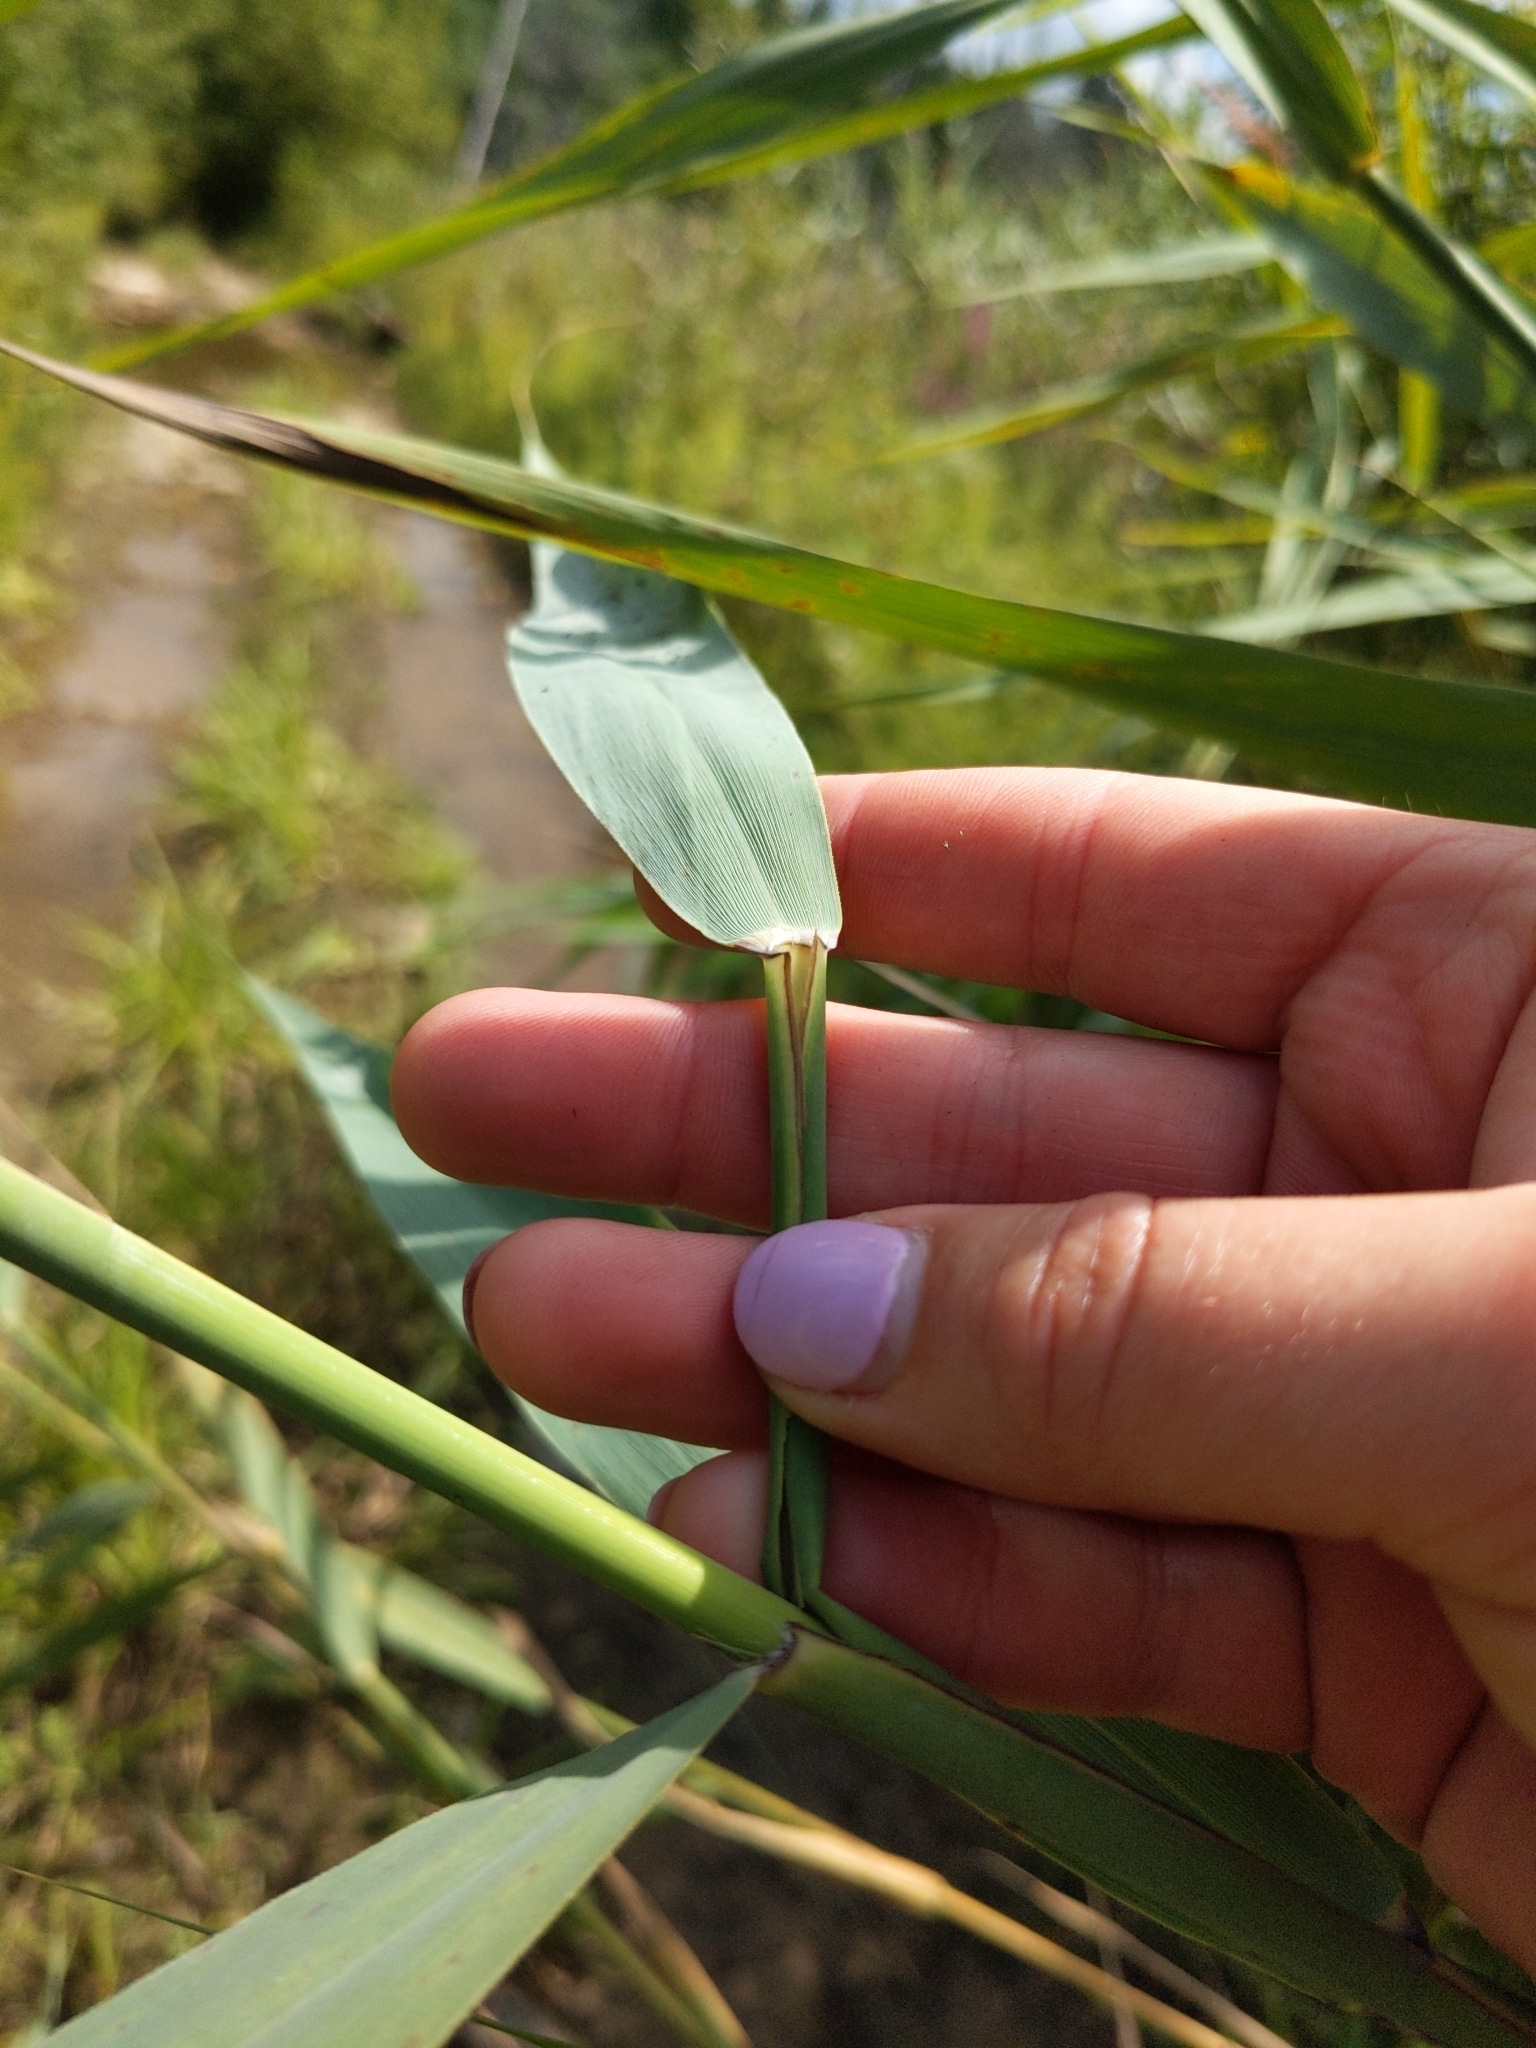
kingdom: Plantae
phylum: Tracheophyta
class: Liliopsida
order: Poales
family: Poaceae
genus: Phragmites
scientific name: Phragmites australis
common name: Common reed
